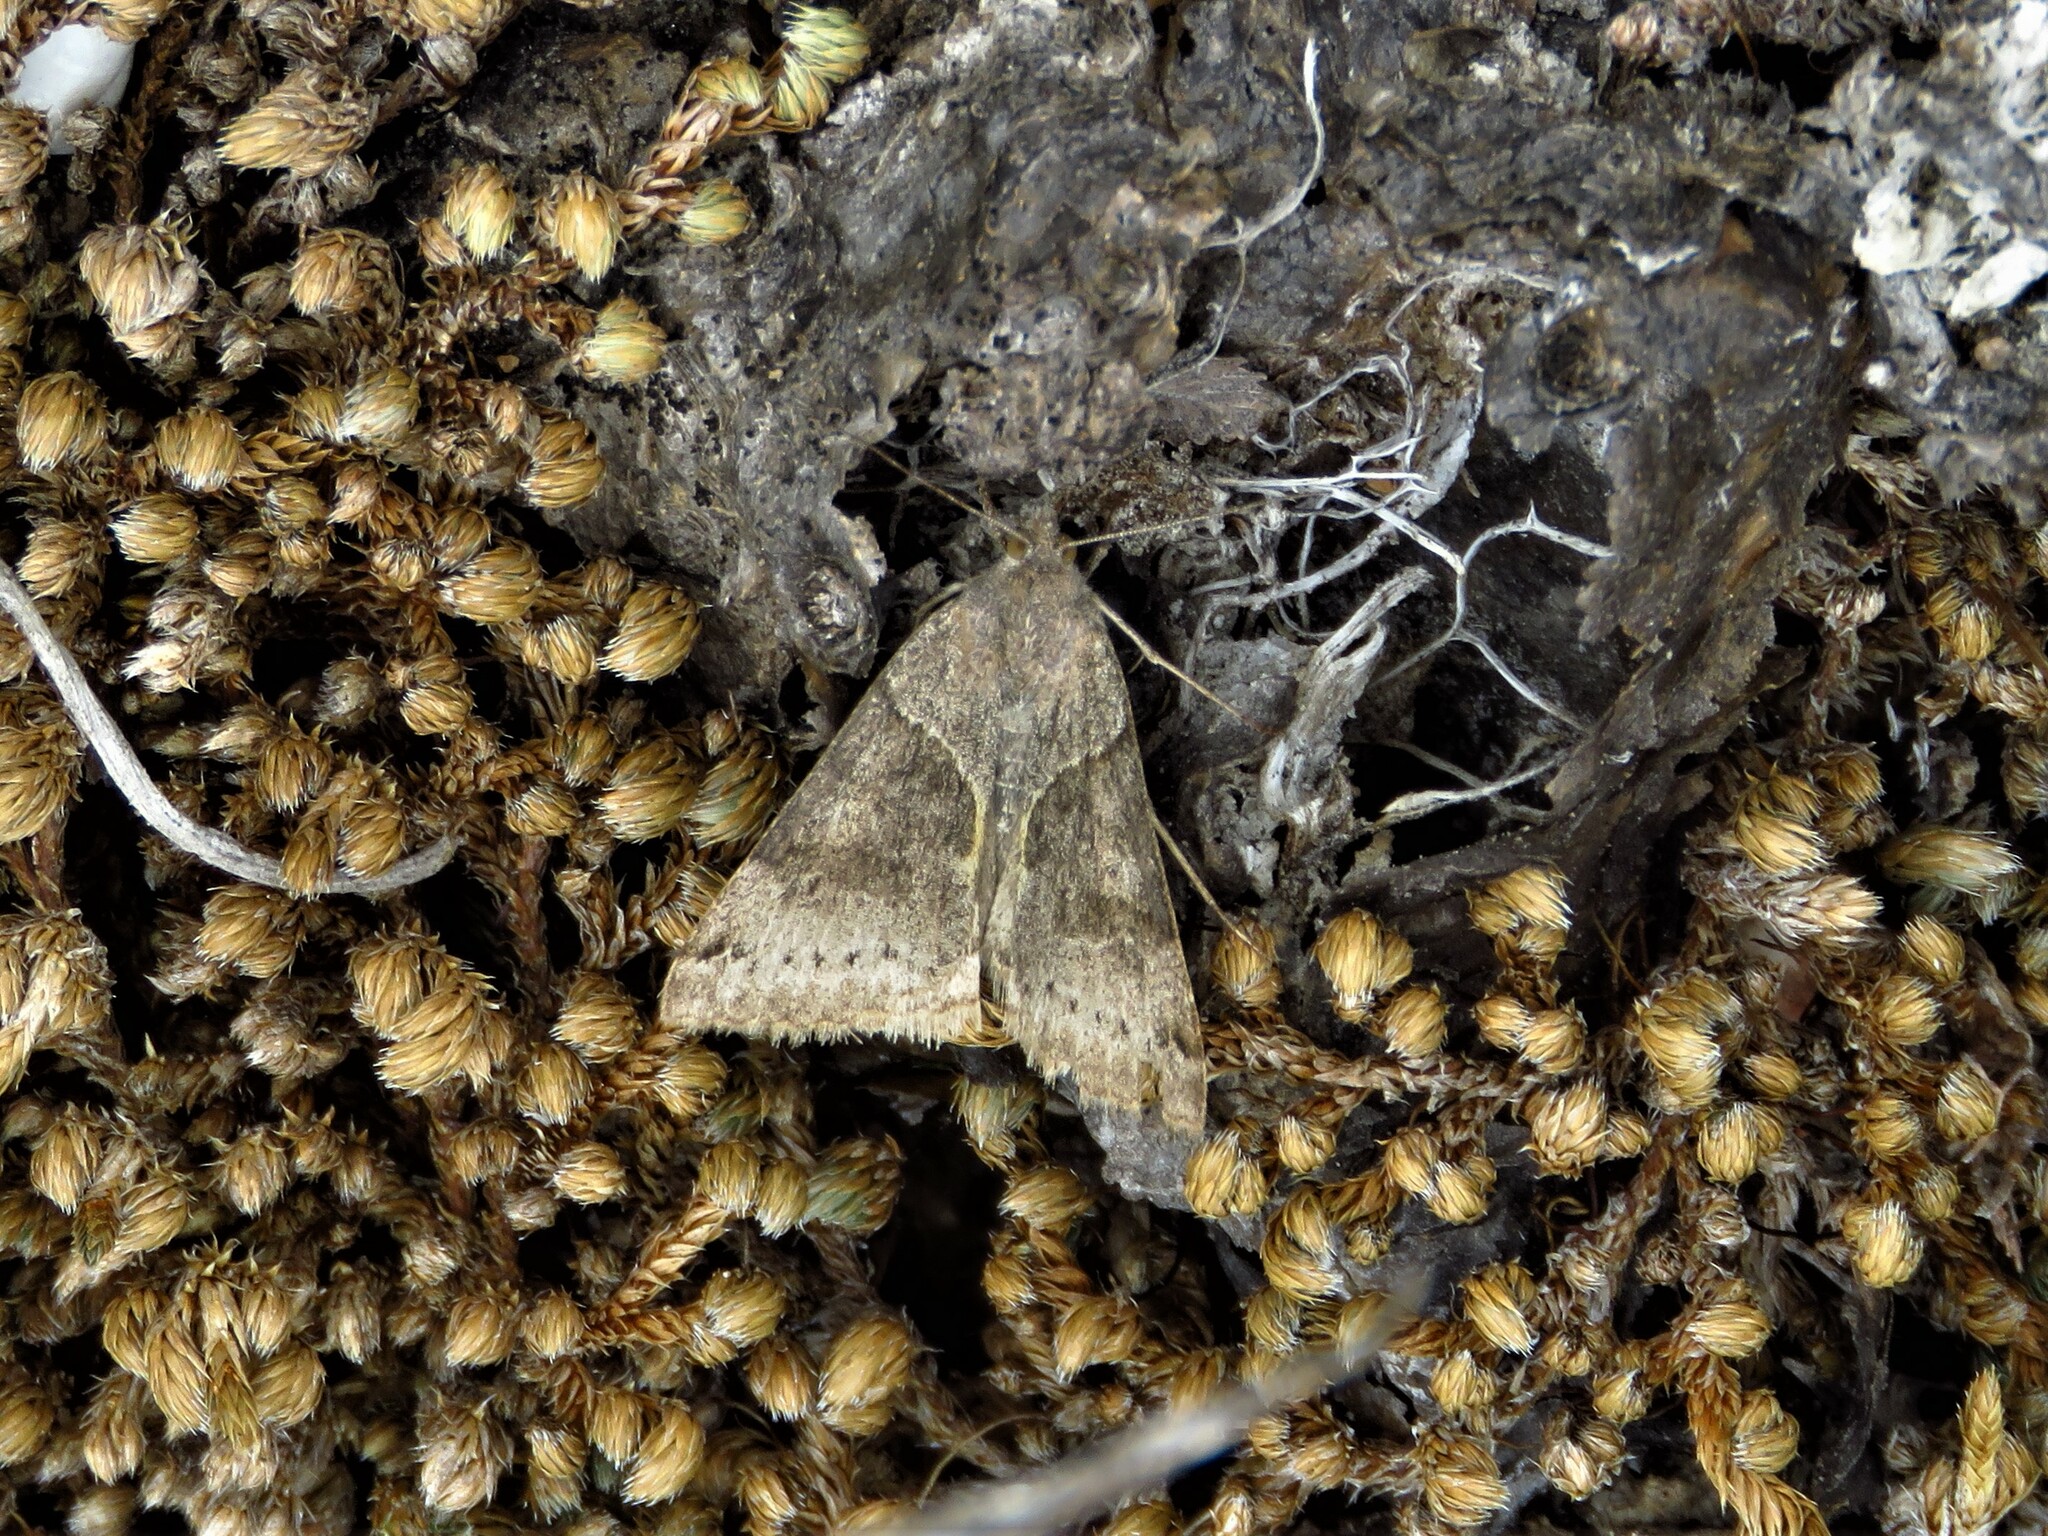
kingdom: Animalia
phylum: Arthropoda
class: Insecta
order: Lepidoptera
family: Erebidae
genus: Caenurgina
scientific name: Caenurgina erechtea
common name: Forage looper moth
